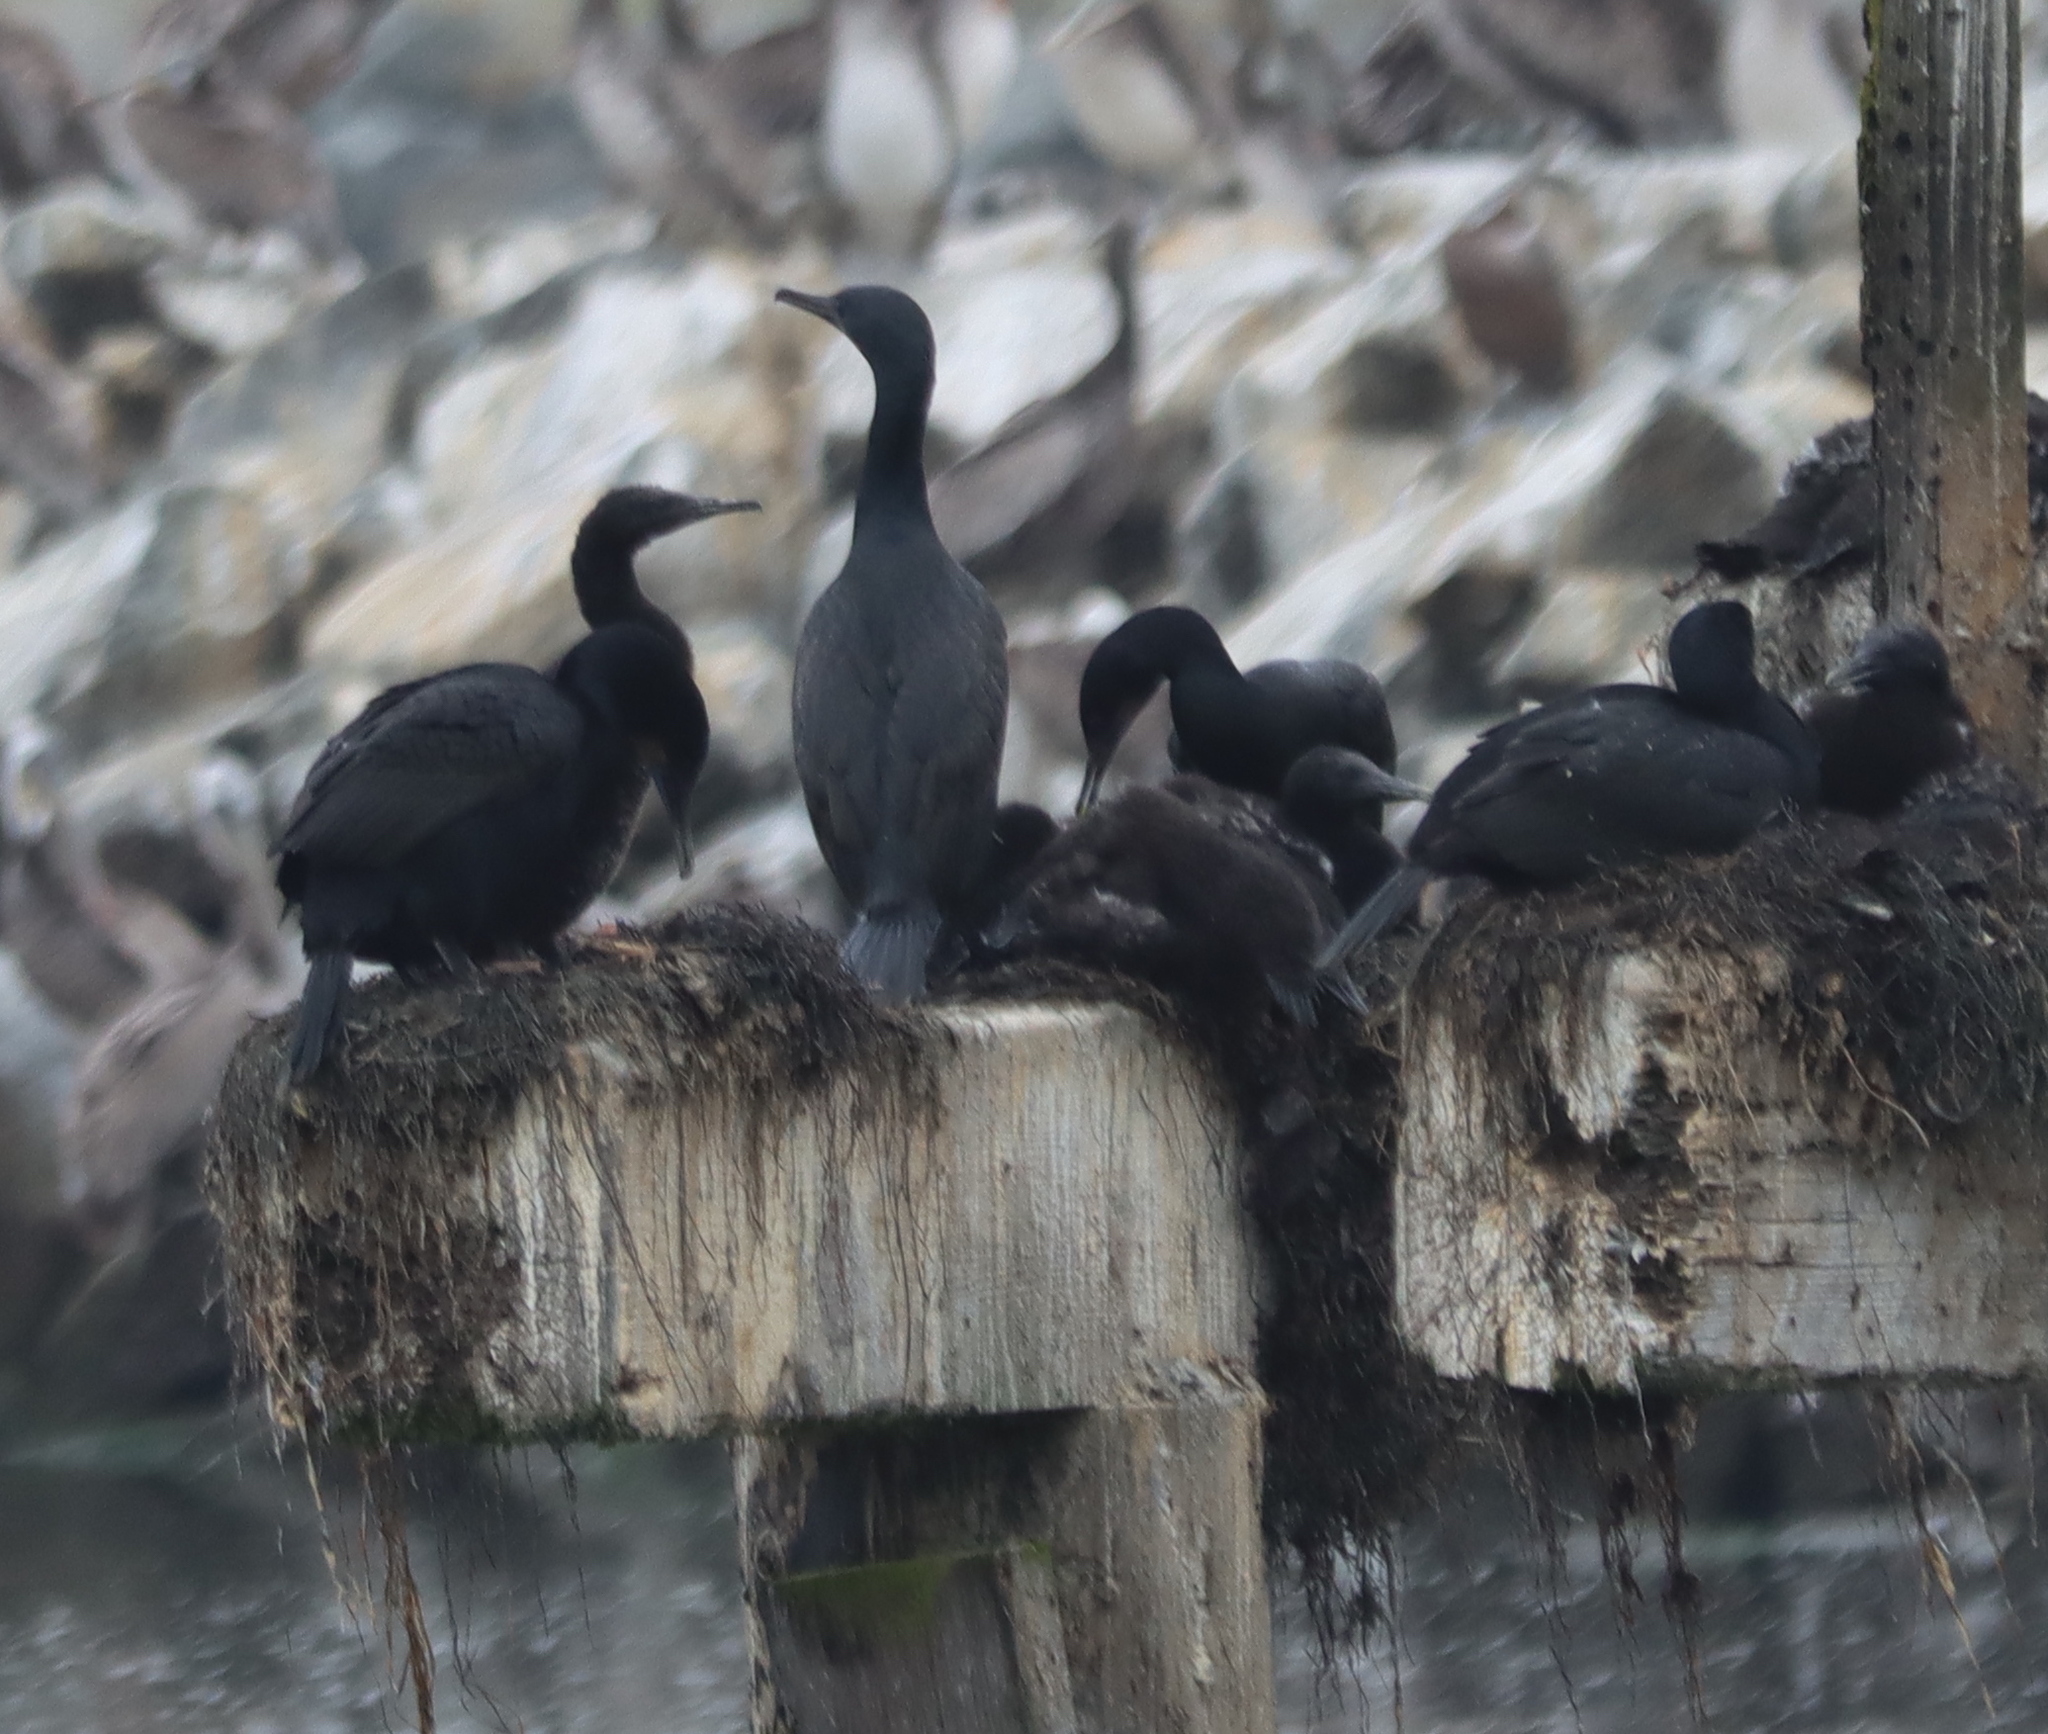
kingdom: Animalia
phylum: Chordata
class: Aves
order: Suliformes
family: Phalacrocoracidae
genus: Urile
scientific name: Urile penicillatus
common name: Brandt's cormorant
